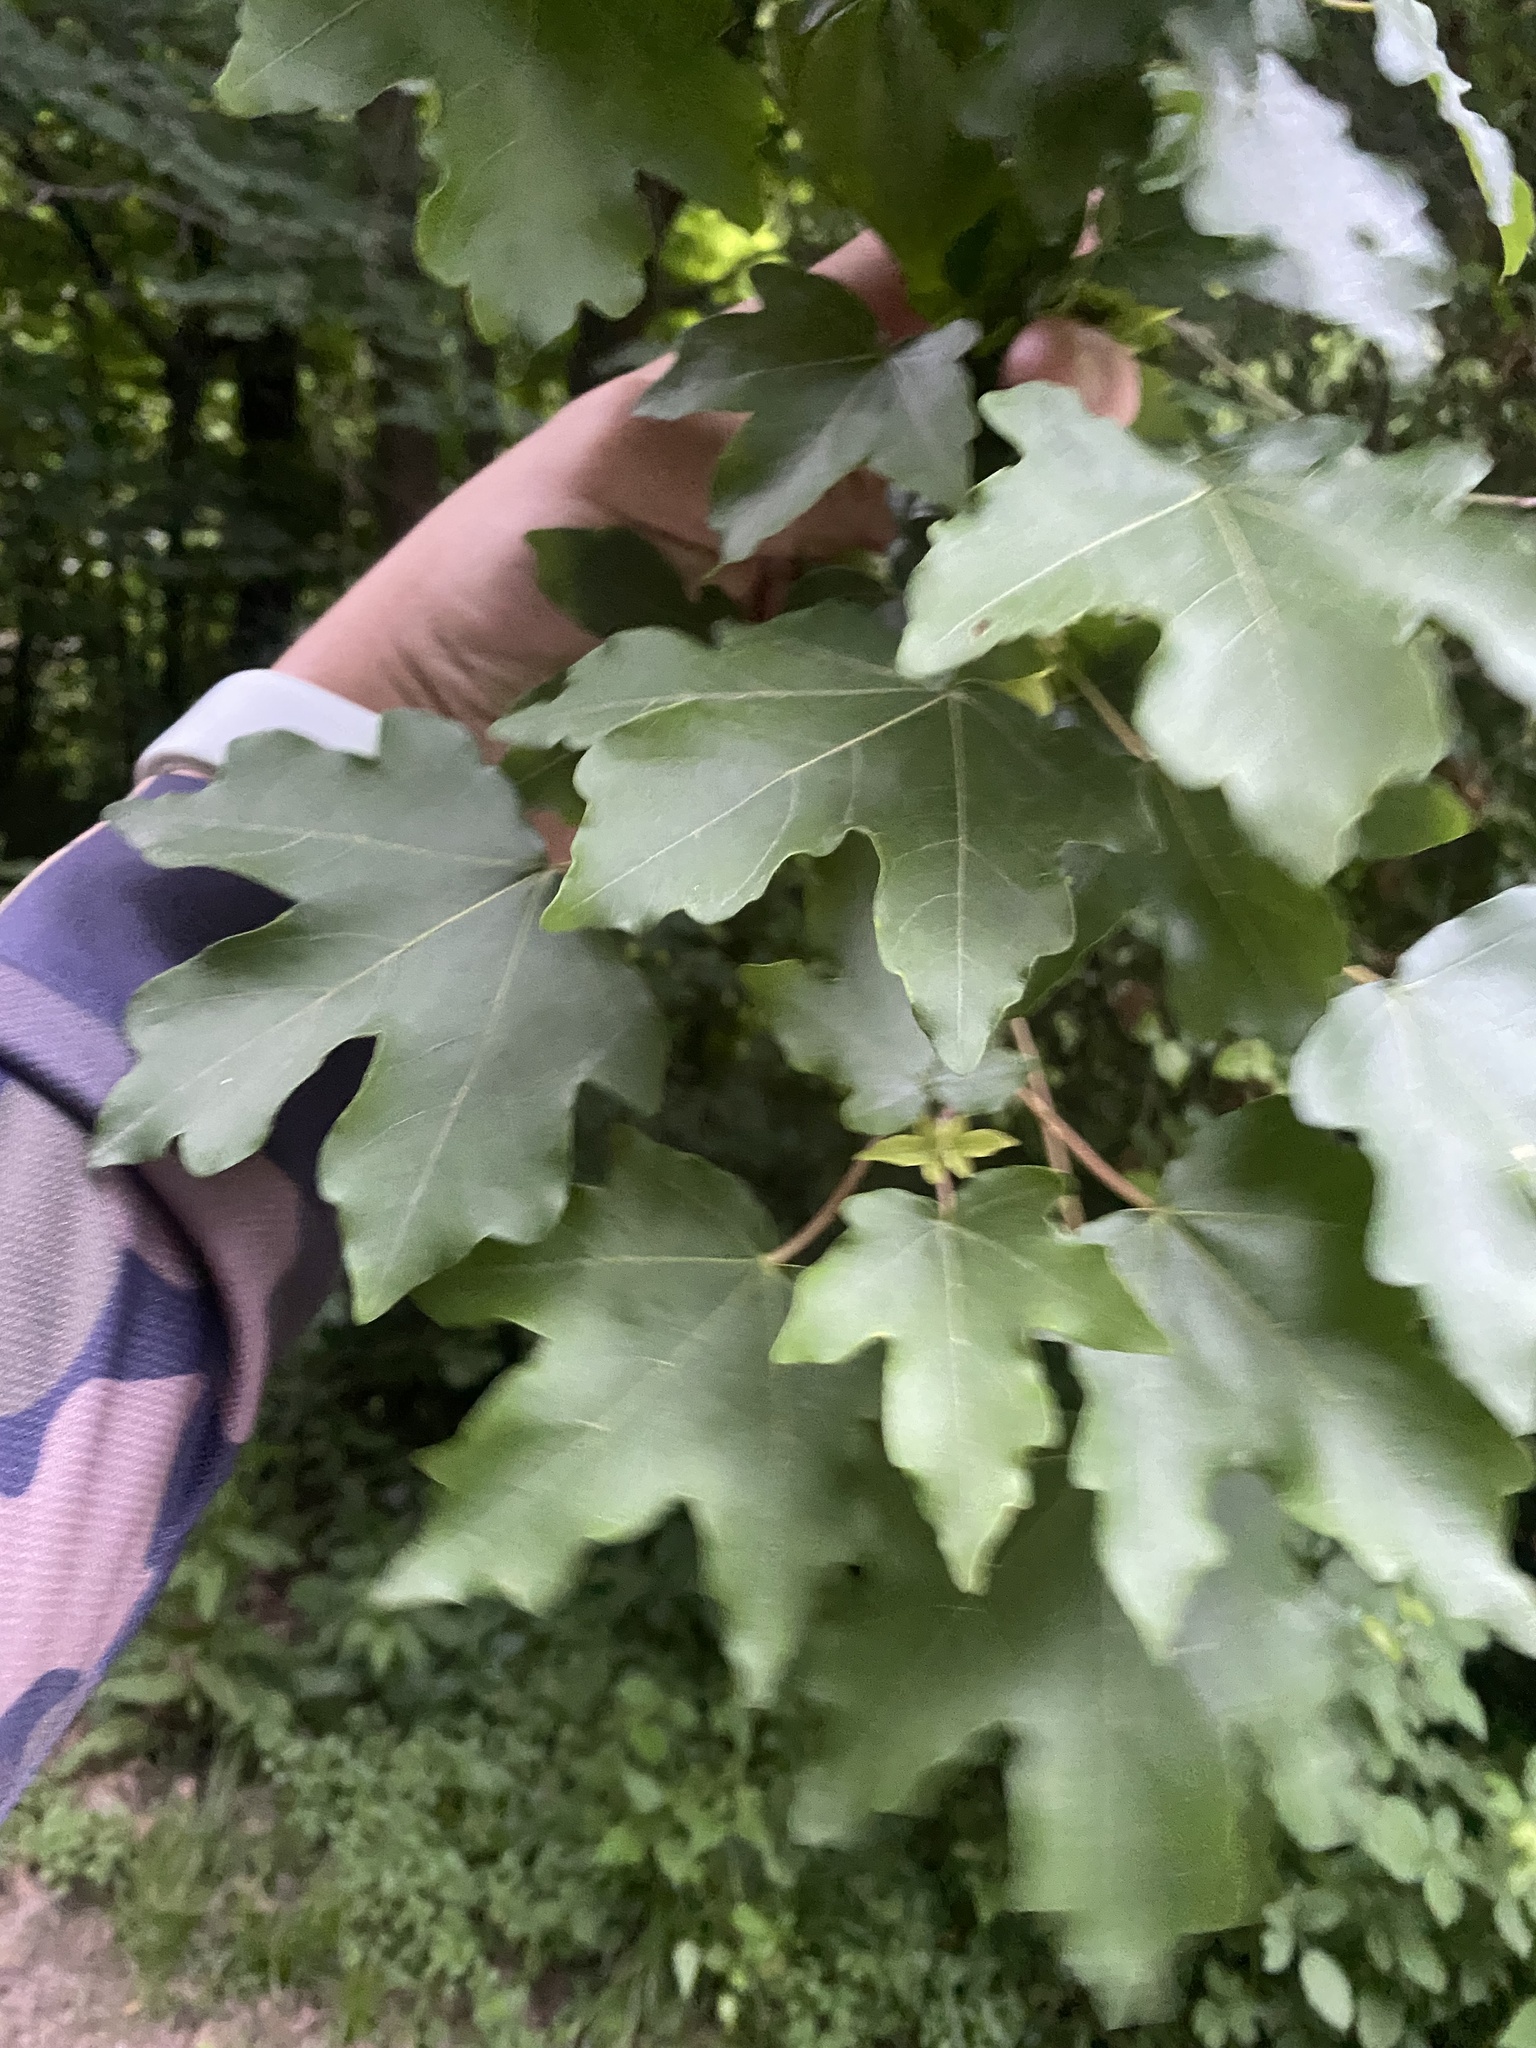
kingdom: Plantae
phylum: Tracheophyta
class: Magnoliopsida
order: Sapindales
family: Sapindaceae
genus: Acer
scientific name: Acer campestre
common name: Field maple
